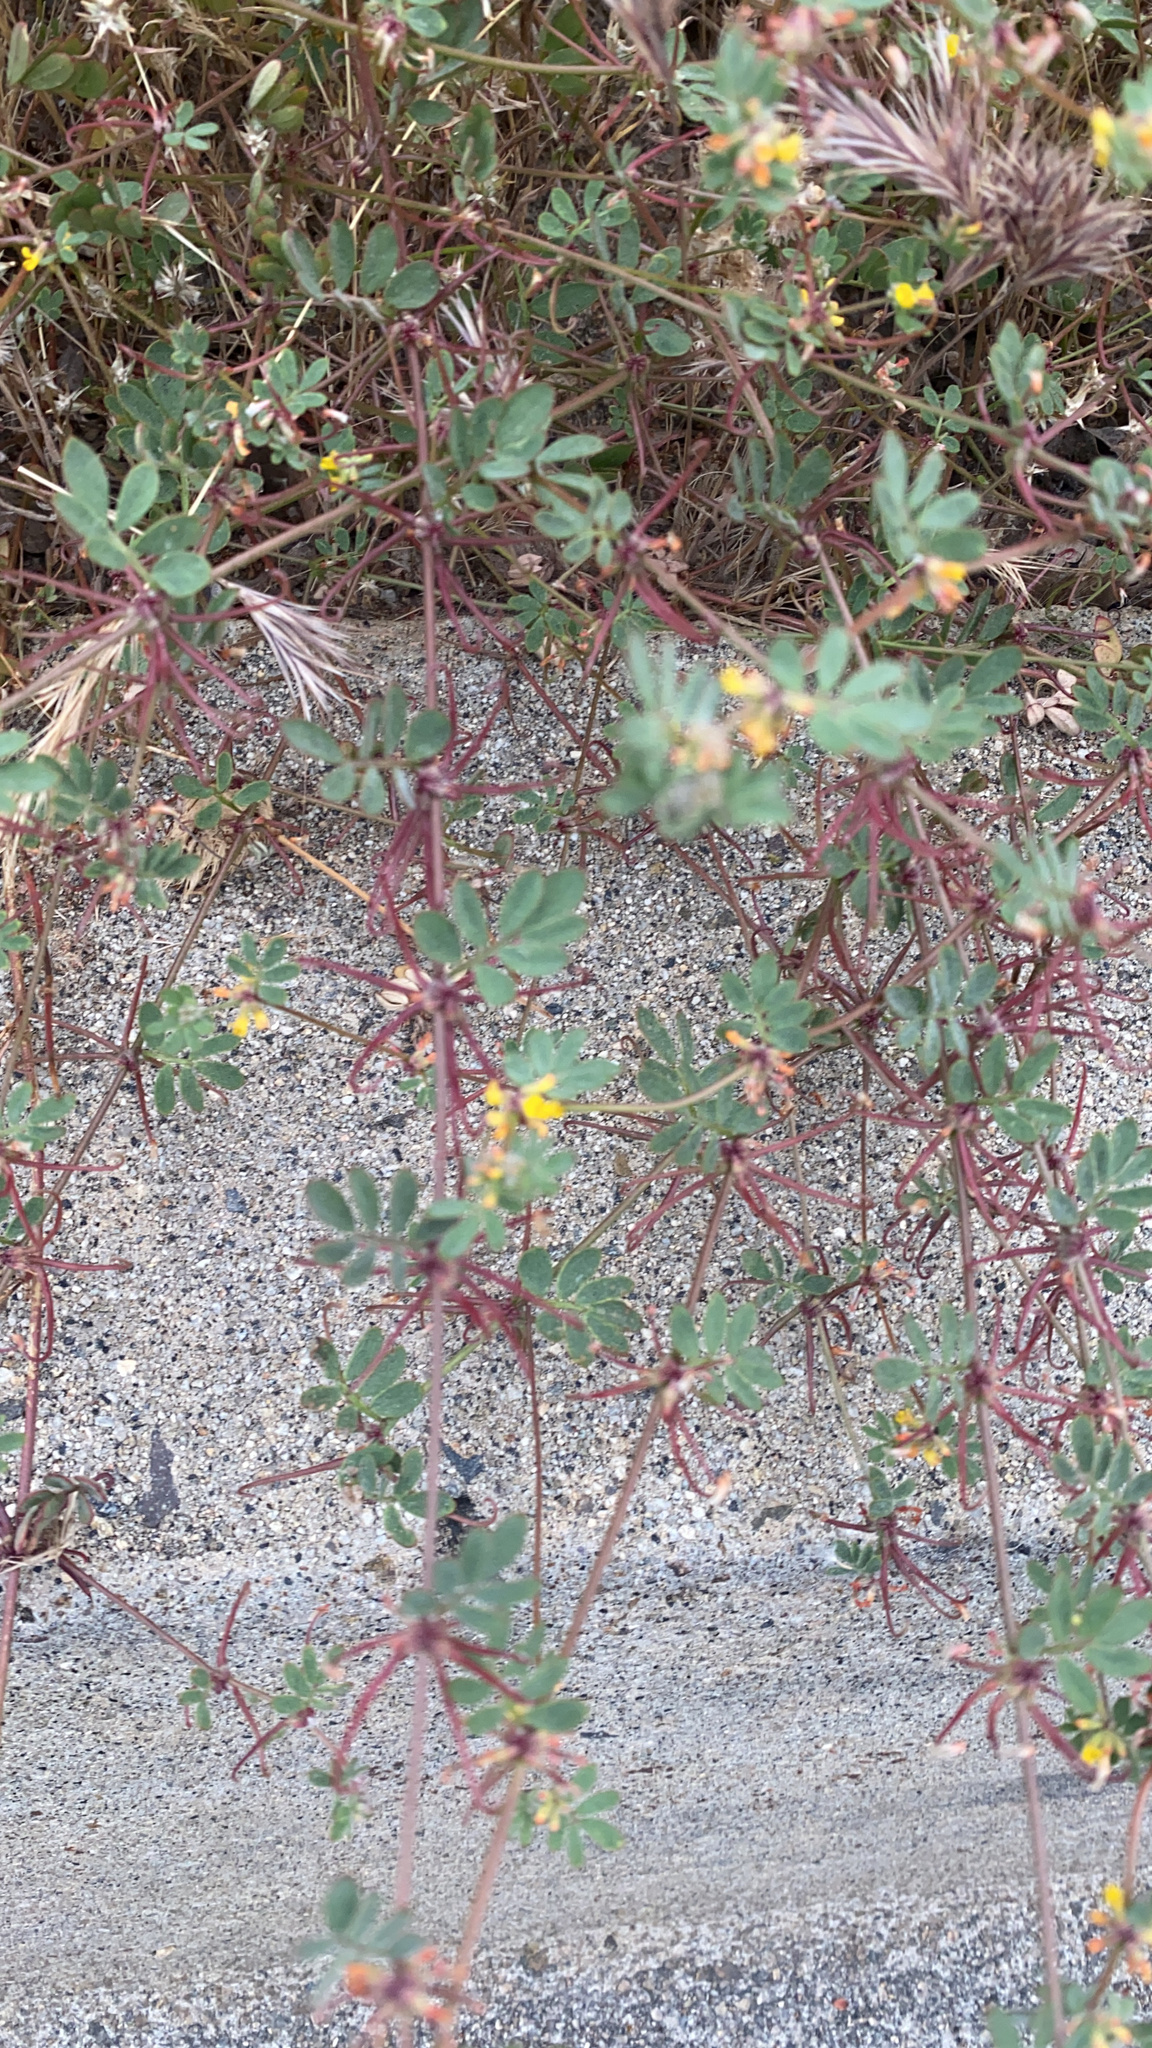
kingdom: Plantae
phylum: Tracheophyta
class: Magnoliopsida
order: Fabales
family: Fabaceae
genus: Acmispon
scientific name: Acmispon micranthus
